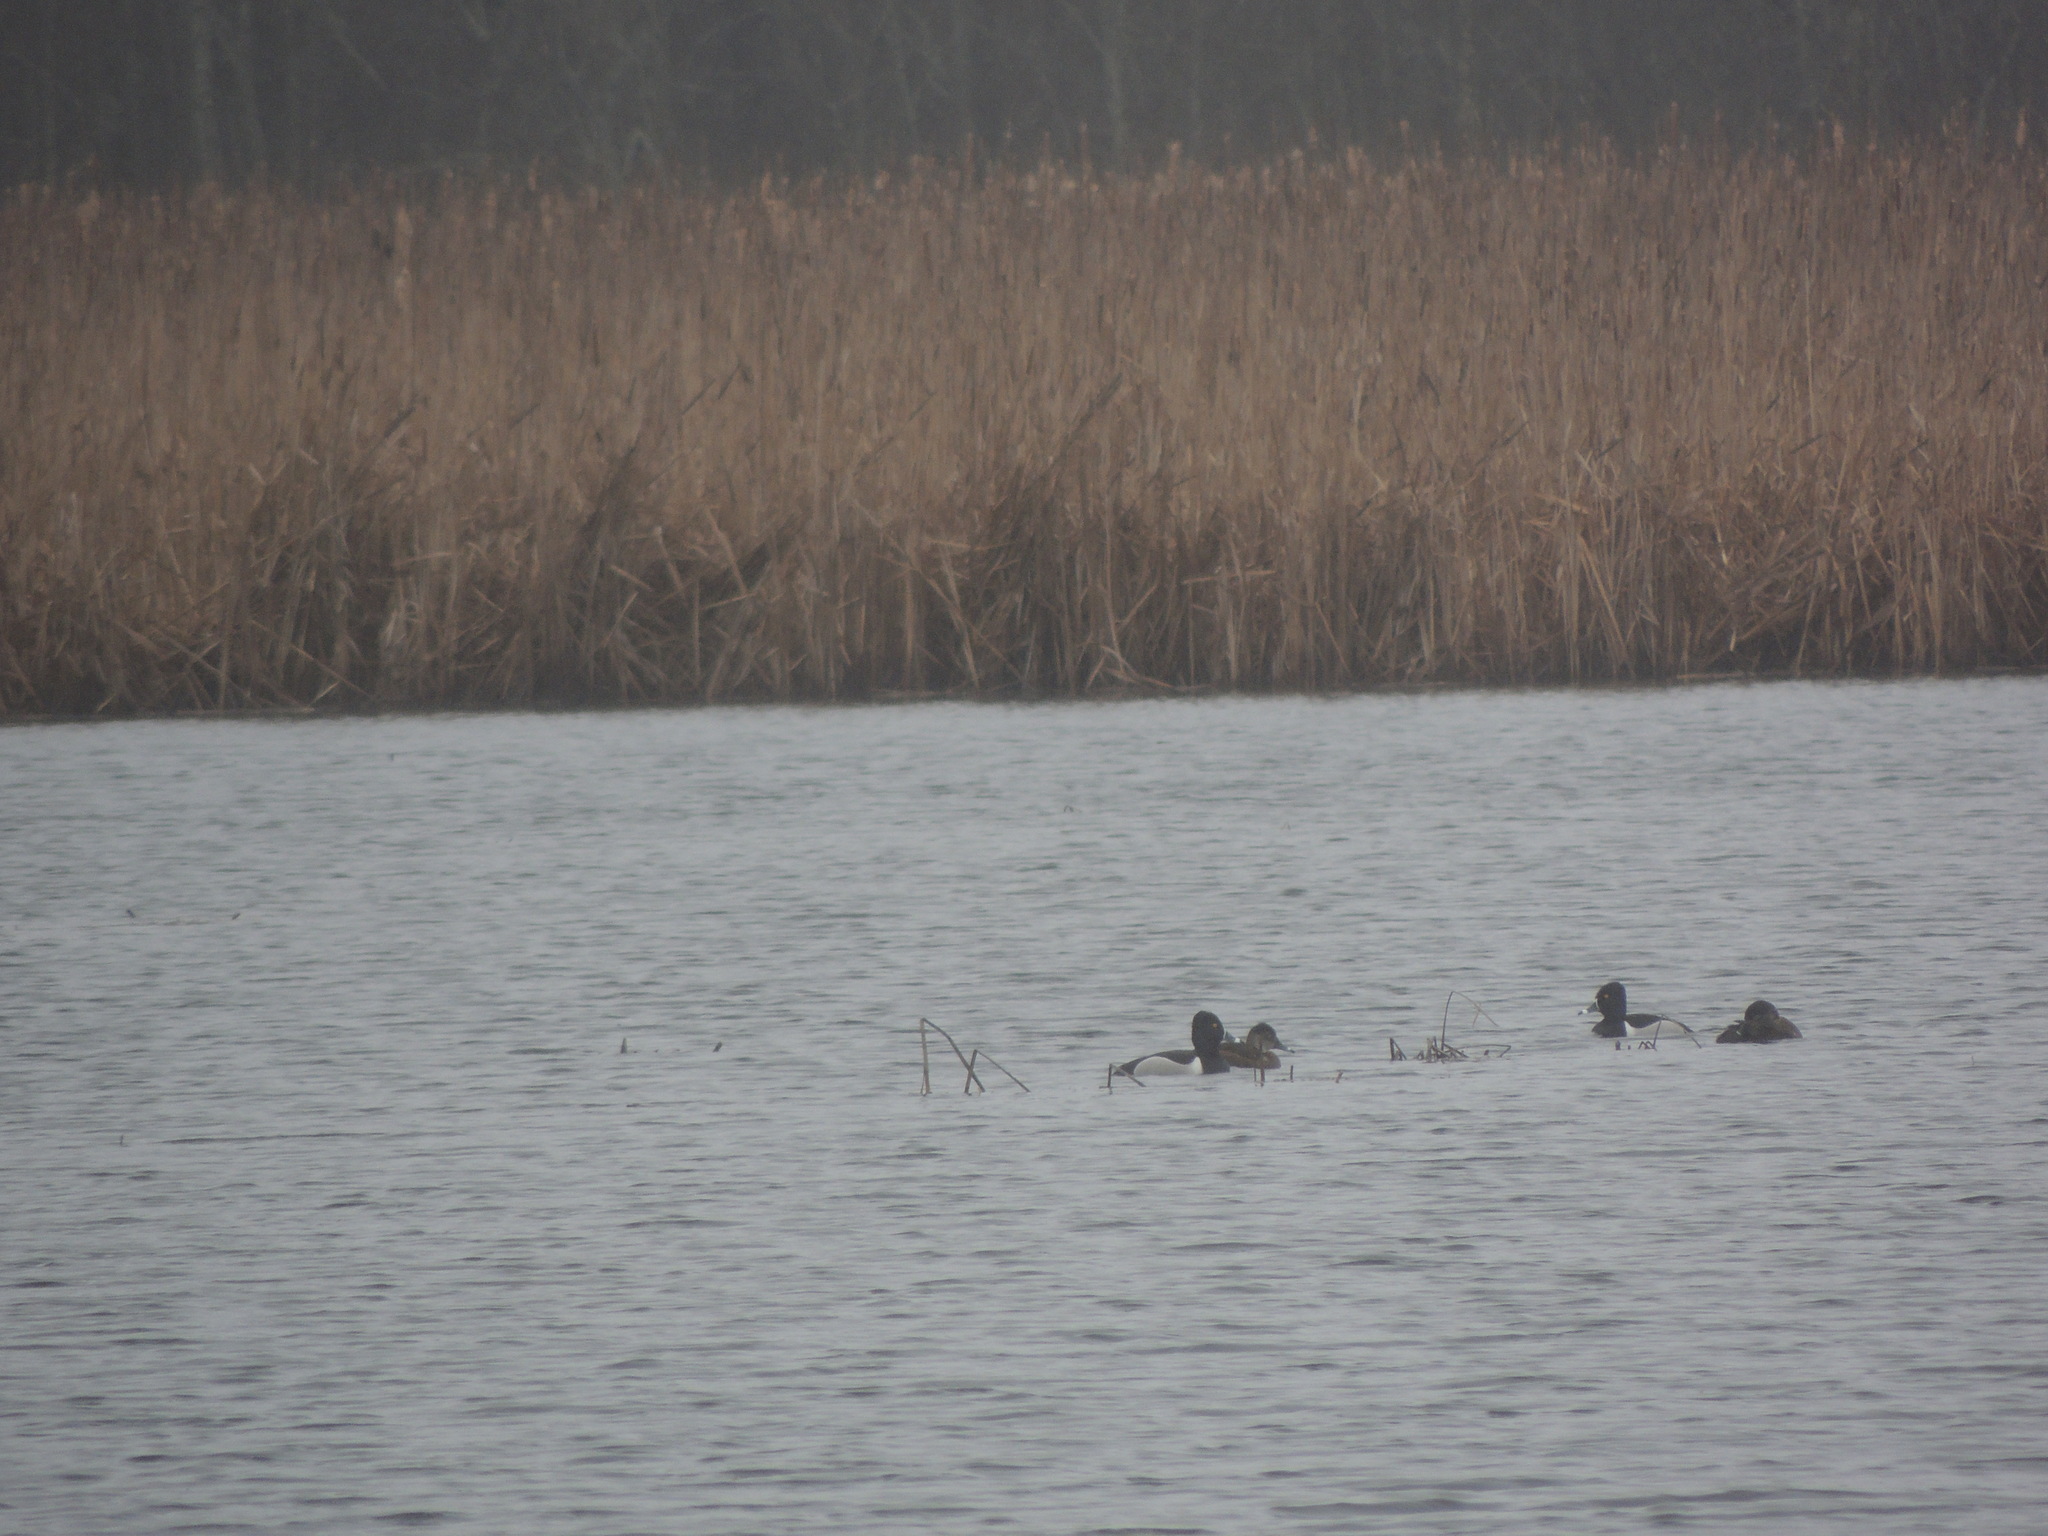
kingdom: Animalia
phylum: Chordata
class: Aves
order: Anseriformes
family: Anatidae
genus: Aythya
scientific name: Aythya collaris
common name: Ring-necked duck
